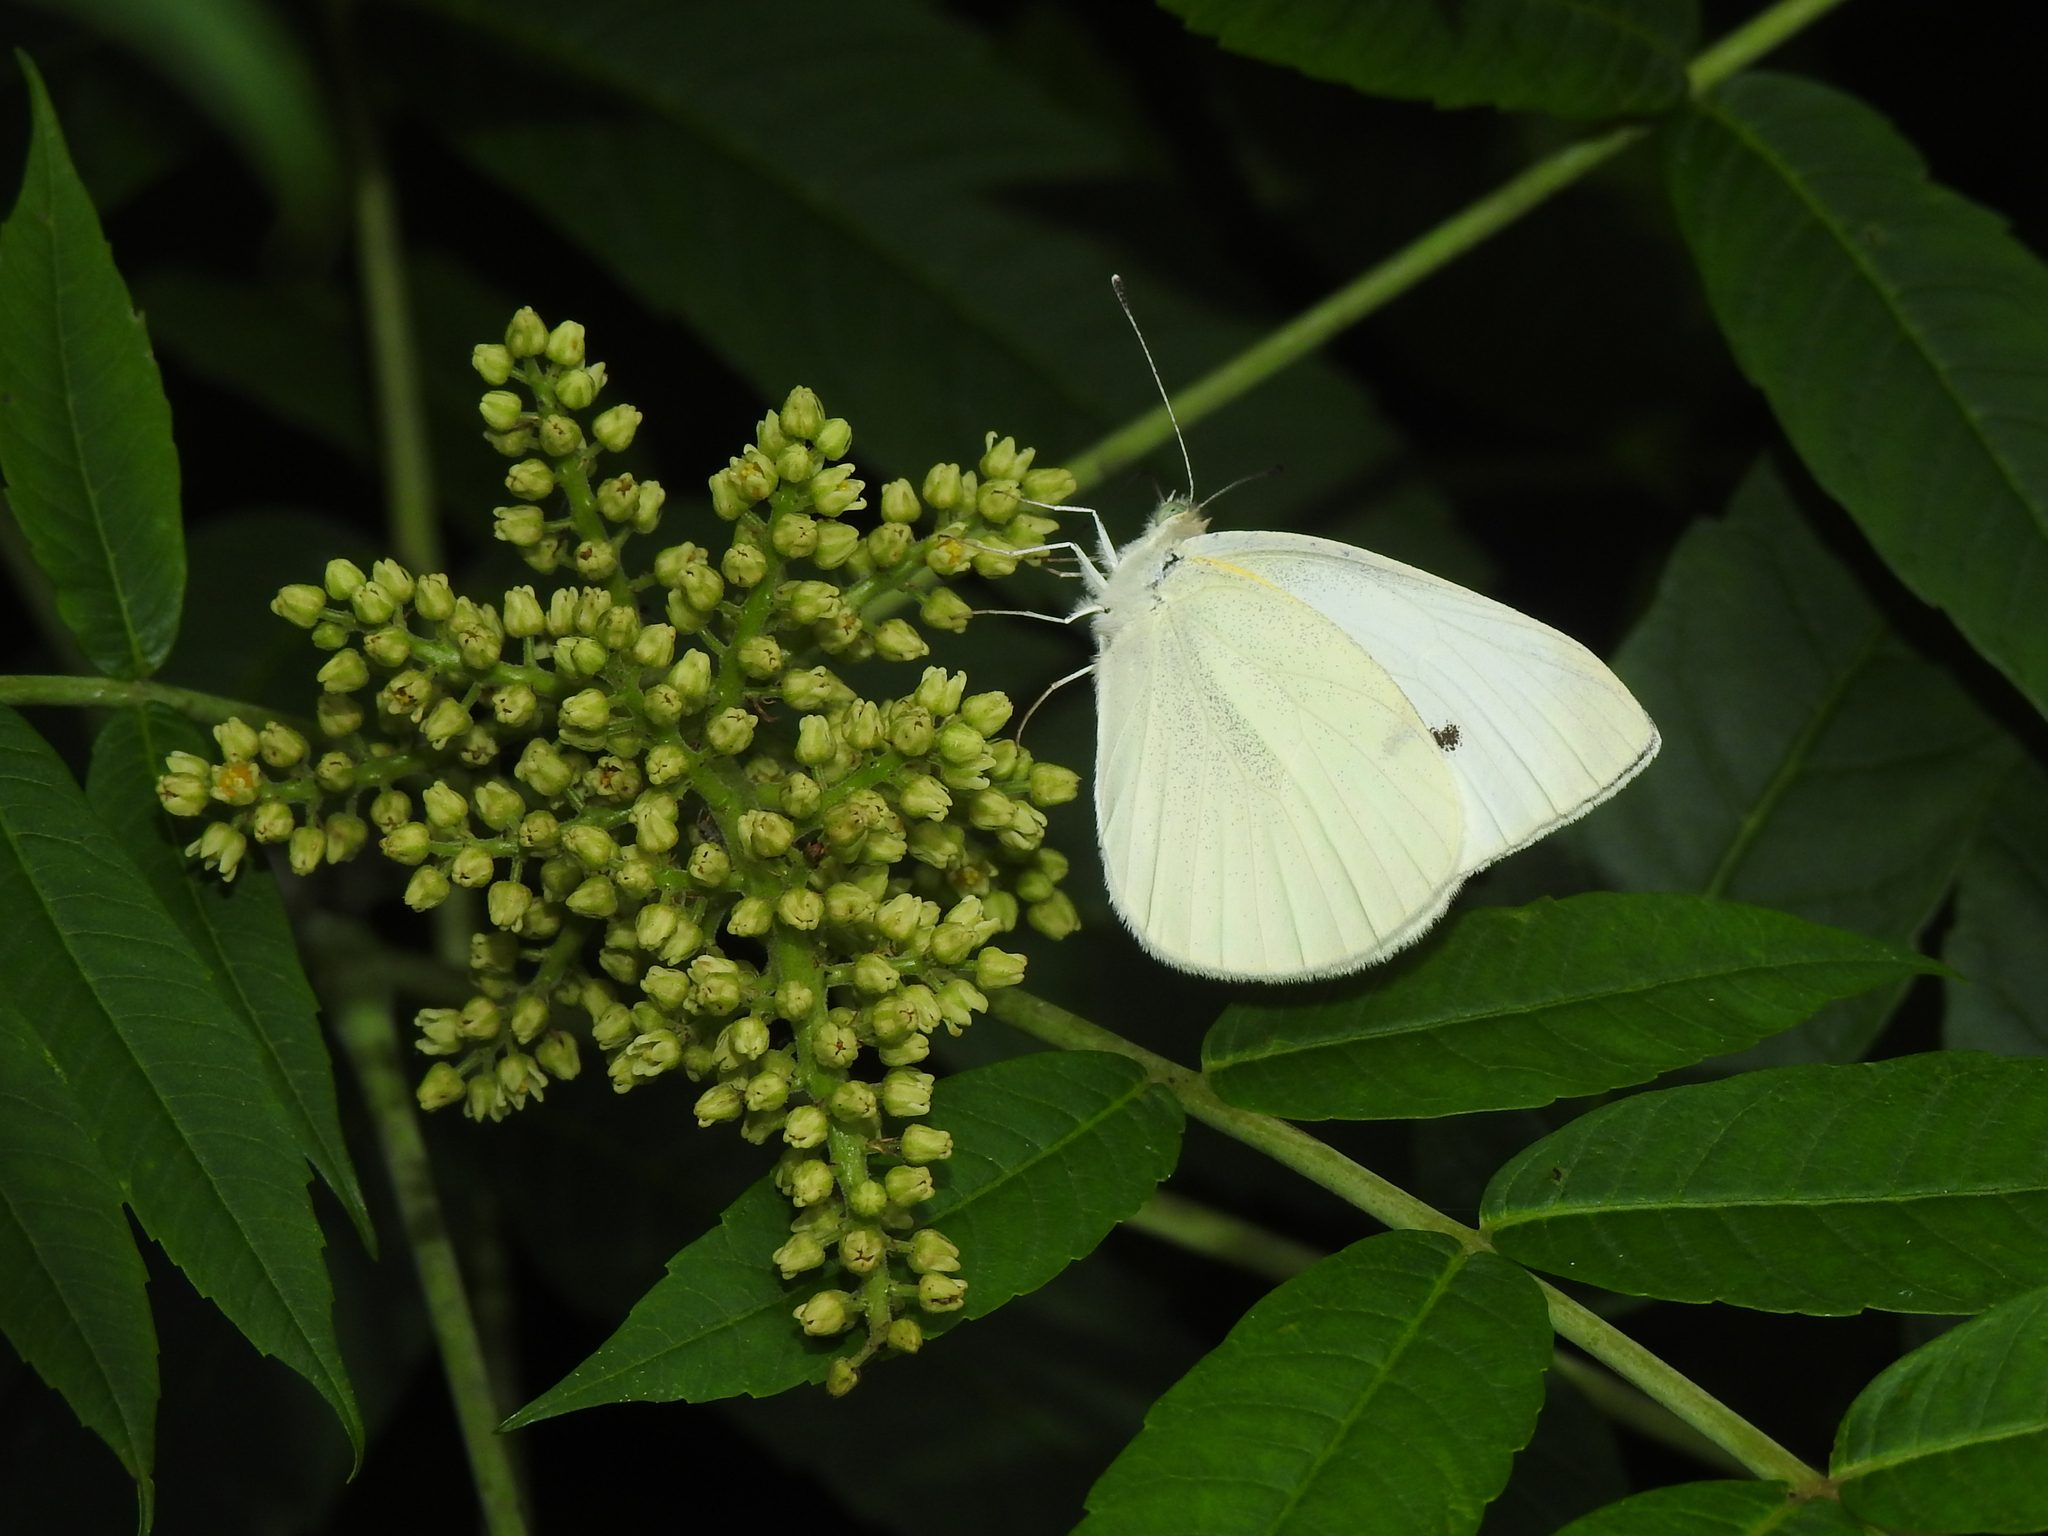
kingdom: Animalia
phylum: Arthropoda
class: Insecta
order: Lepidoptera
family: Pieridae
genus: Pieris
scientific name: Pieris rapae
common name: Small white
